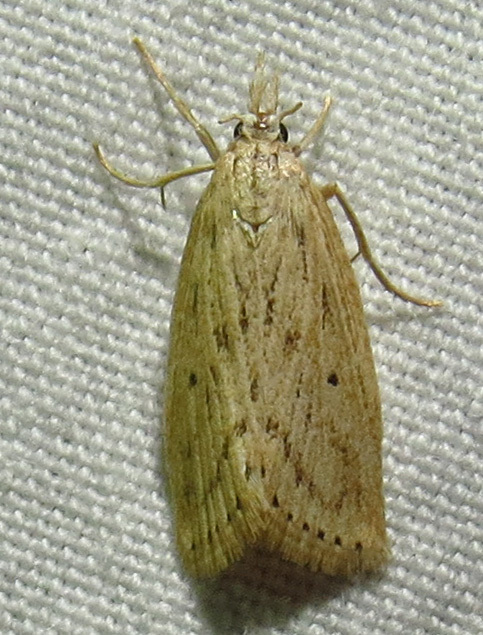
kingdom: Animalia
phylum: Arthropoda
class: Insecta
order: Lepidoptera
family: Crambidae
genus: Diatraea
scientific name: Diatraea lisetta
